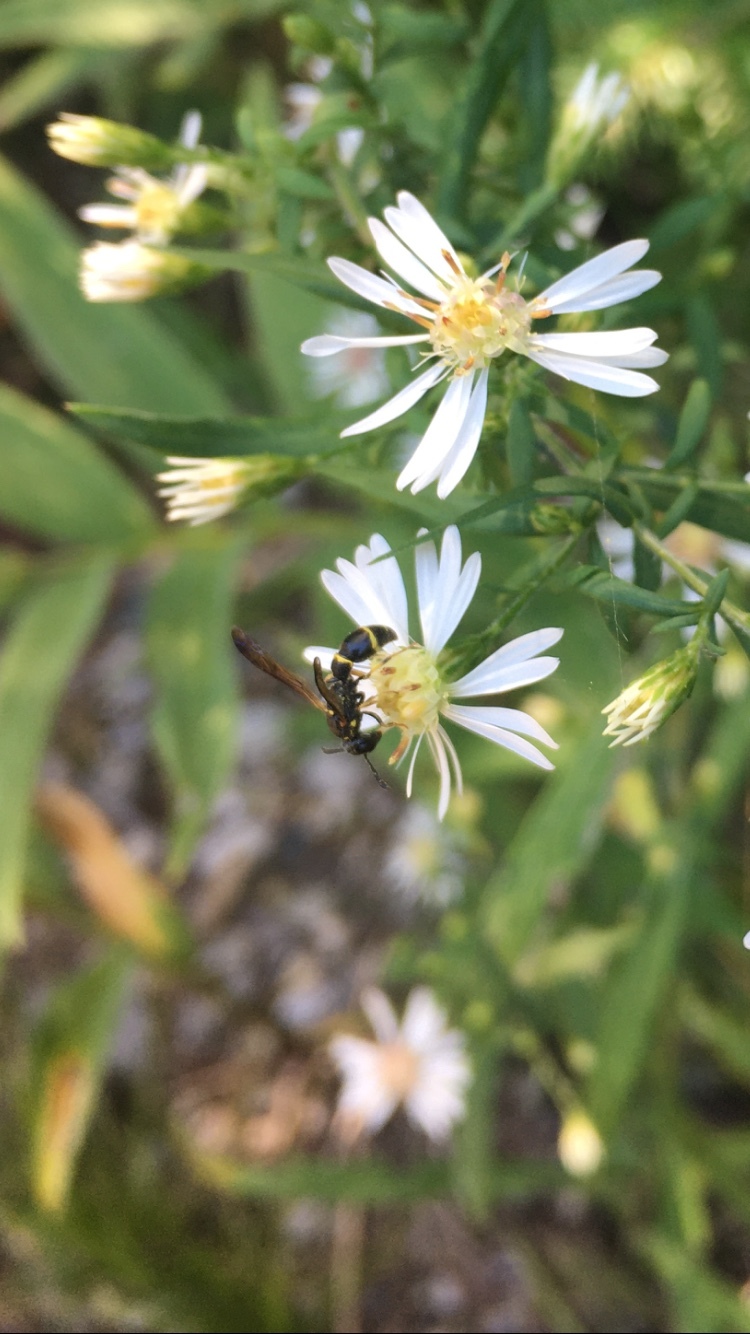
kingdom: Animalia
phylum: Arthropoda
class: Insecta
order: Hymenoptera
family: Eumenidae
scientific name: Eumenidae
